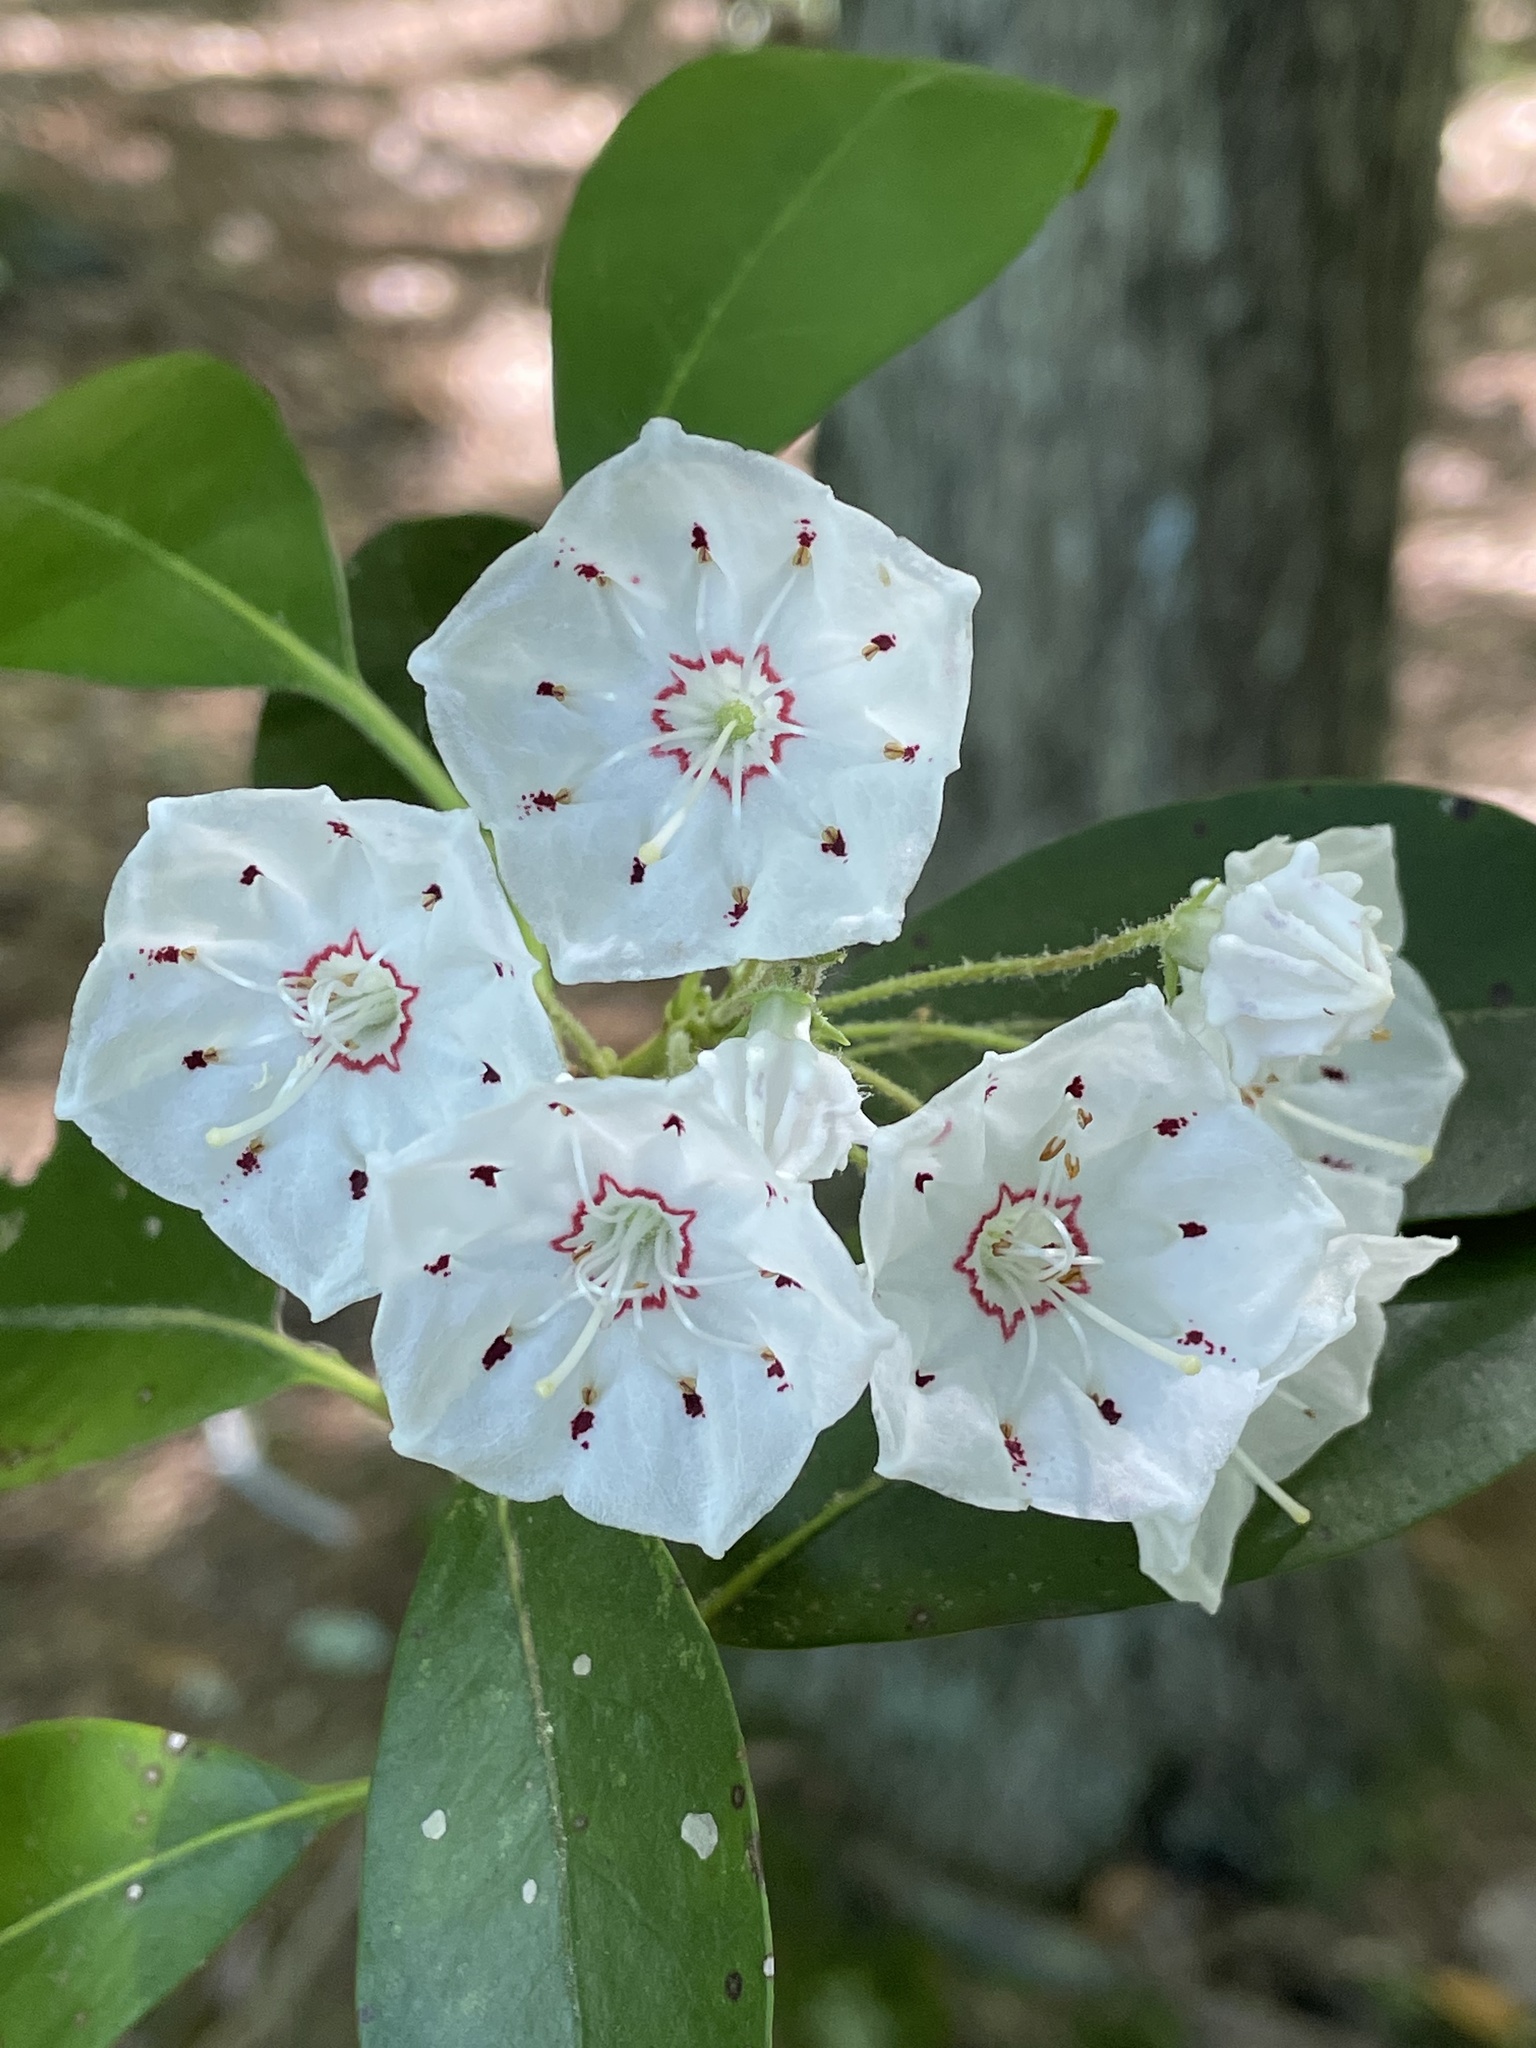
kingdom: Plantae
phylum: Tracheophyta
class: Magnoliopsida
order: Ericales
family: Ericaceae
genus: Kalmia
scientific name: Kalmia latifolia
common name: Mountain-laurel
